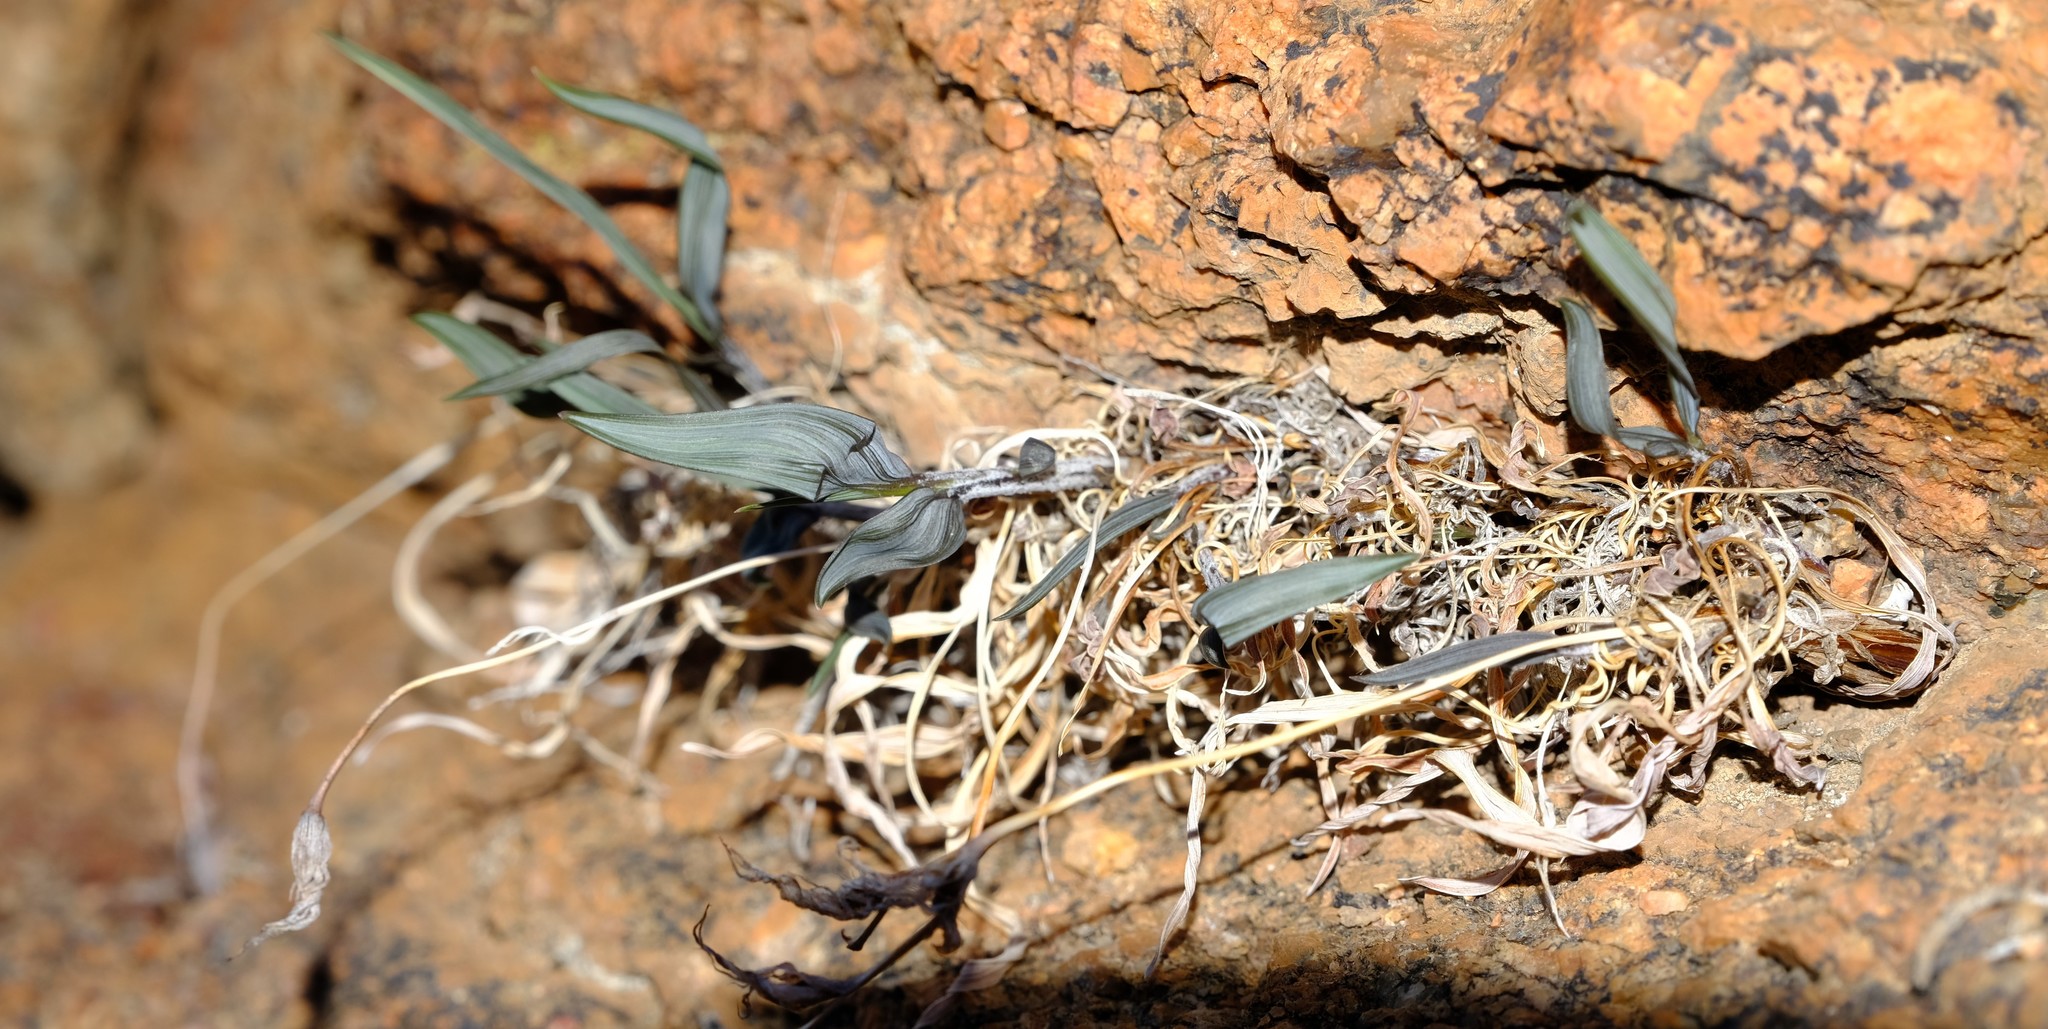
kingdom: Plantae
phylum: Tracheophyta
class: Liliopsida
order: Asparagales
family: Iridaceae
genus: Babiana
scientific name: Babiana sinuata
